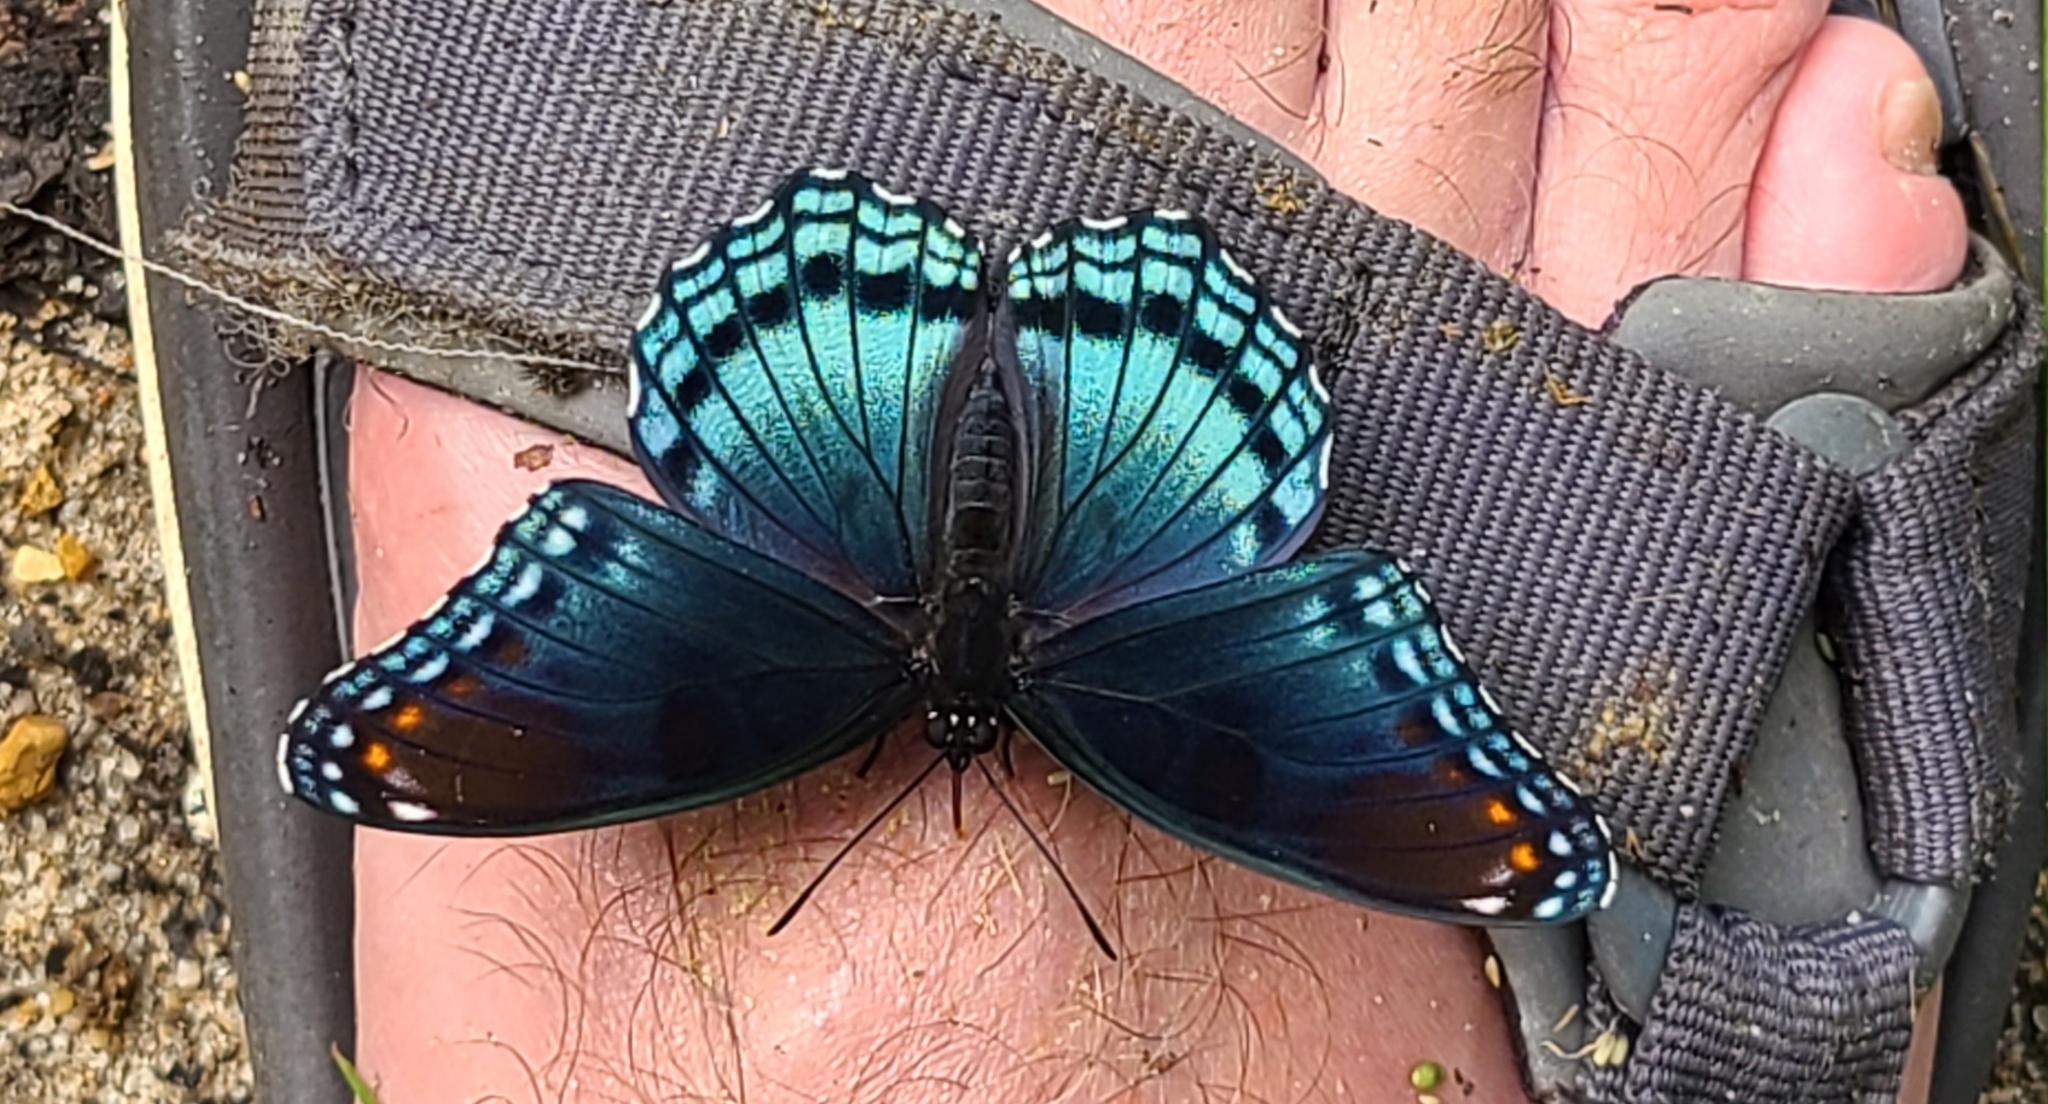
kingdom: Animalia
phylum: Arthropoda
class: Insecta
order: Lepidoptera
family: Nymphalidae
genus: Limenitis
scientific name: Limenitis astyanax
